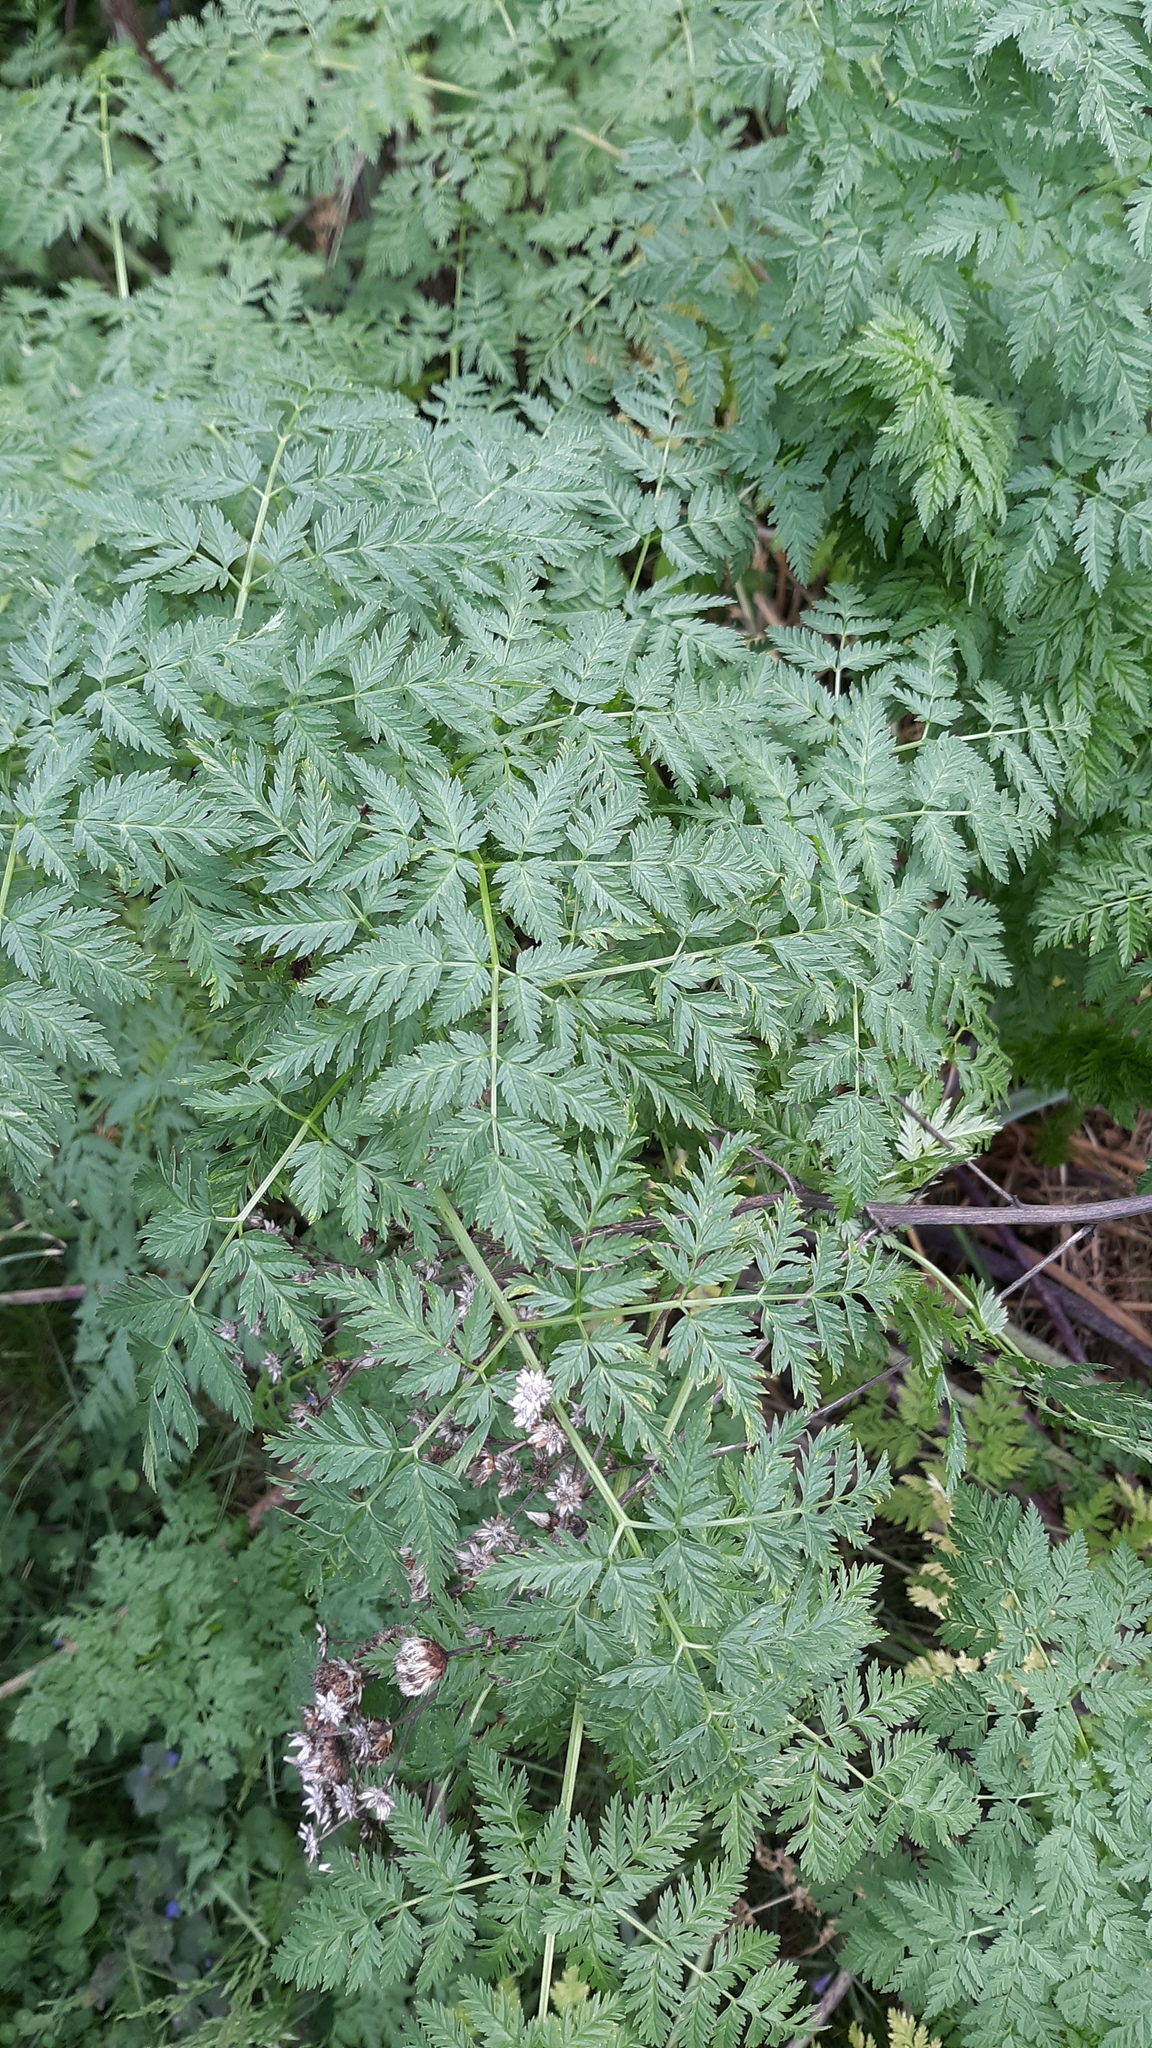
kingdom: Plantae
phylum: Tracheophyta
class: Magnoliopsida
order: Apiales
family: Apiaceae
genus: Conium
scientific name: Conium maculatum
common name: Hemlock
